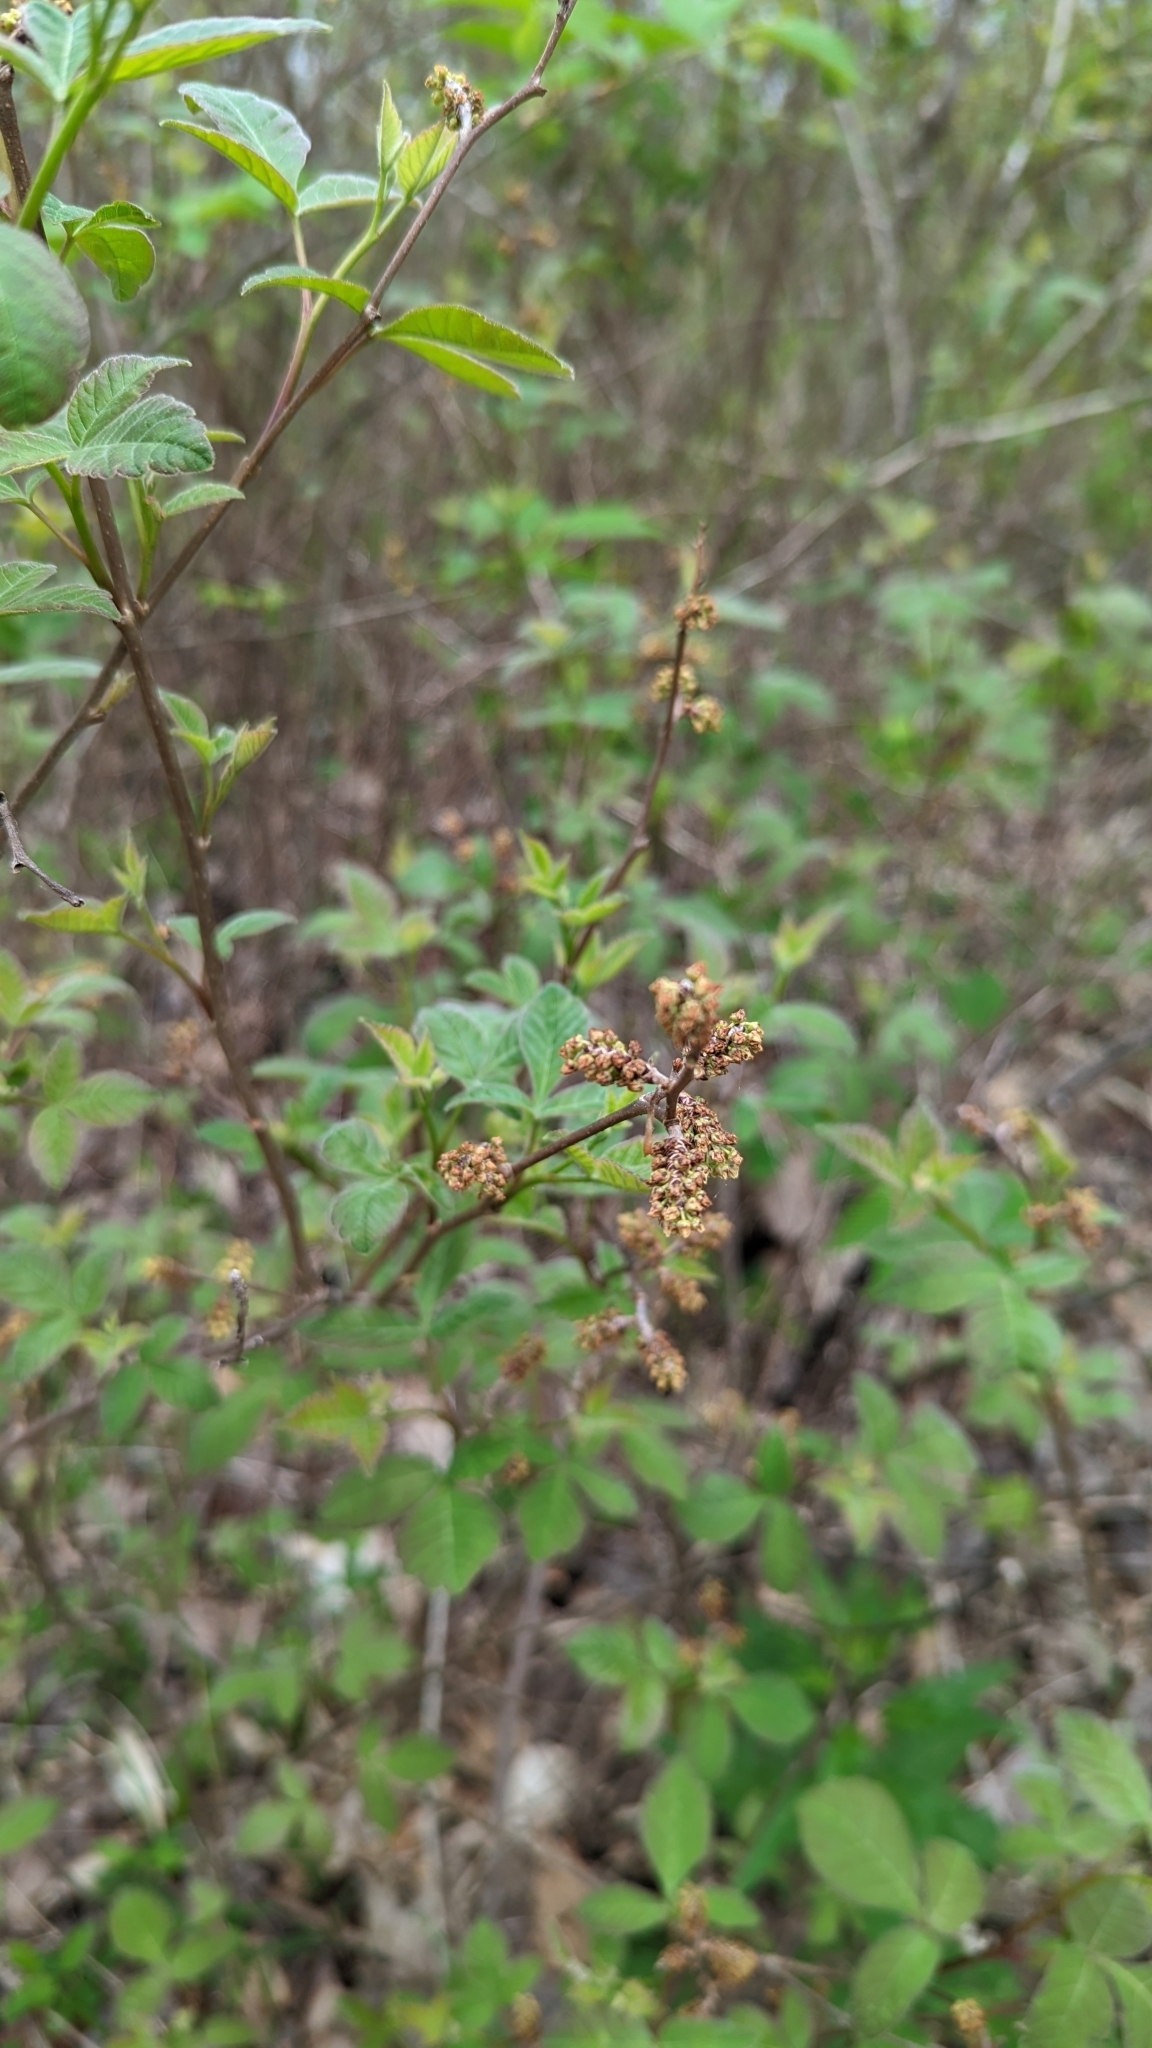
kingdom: Plantae
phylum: Tracheophyta
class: Magnoliopsida
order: Sapindales
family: Anacardiaceae
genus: Rhus
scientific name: Rhus aromatica
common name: Aromatic sumac
